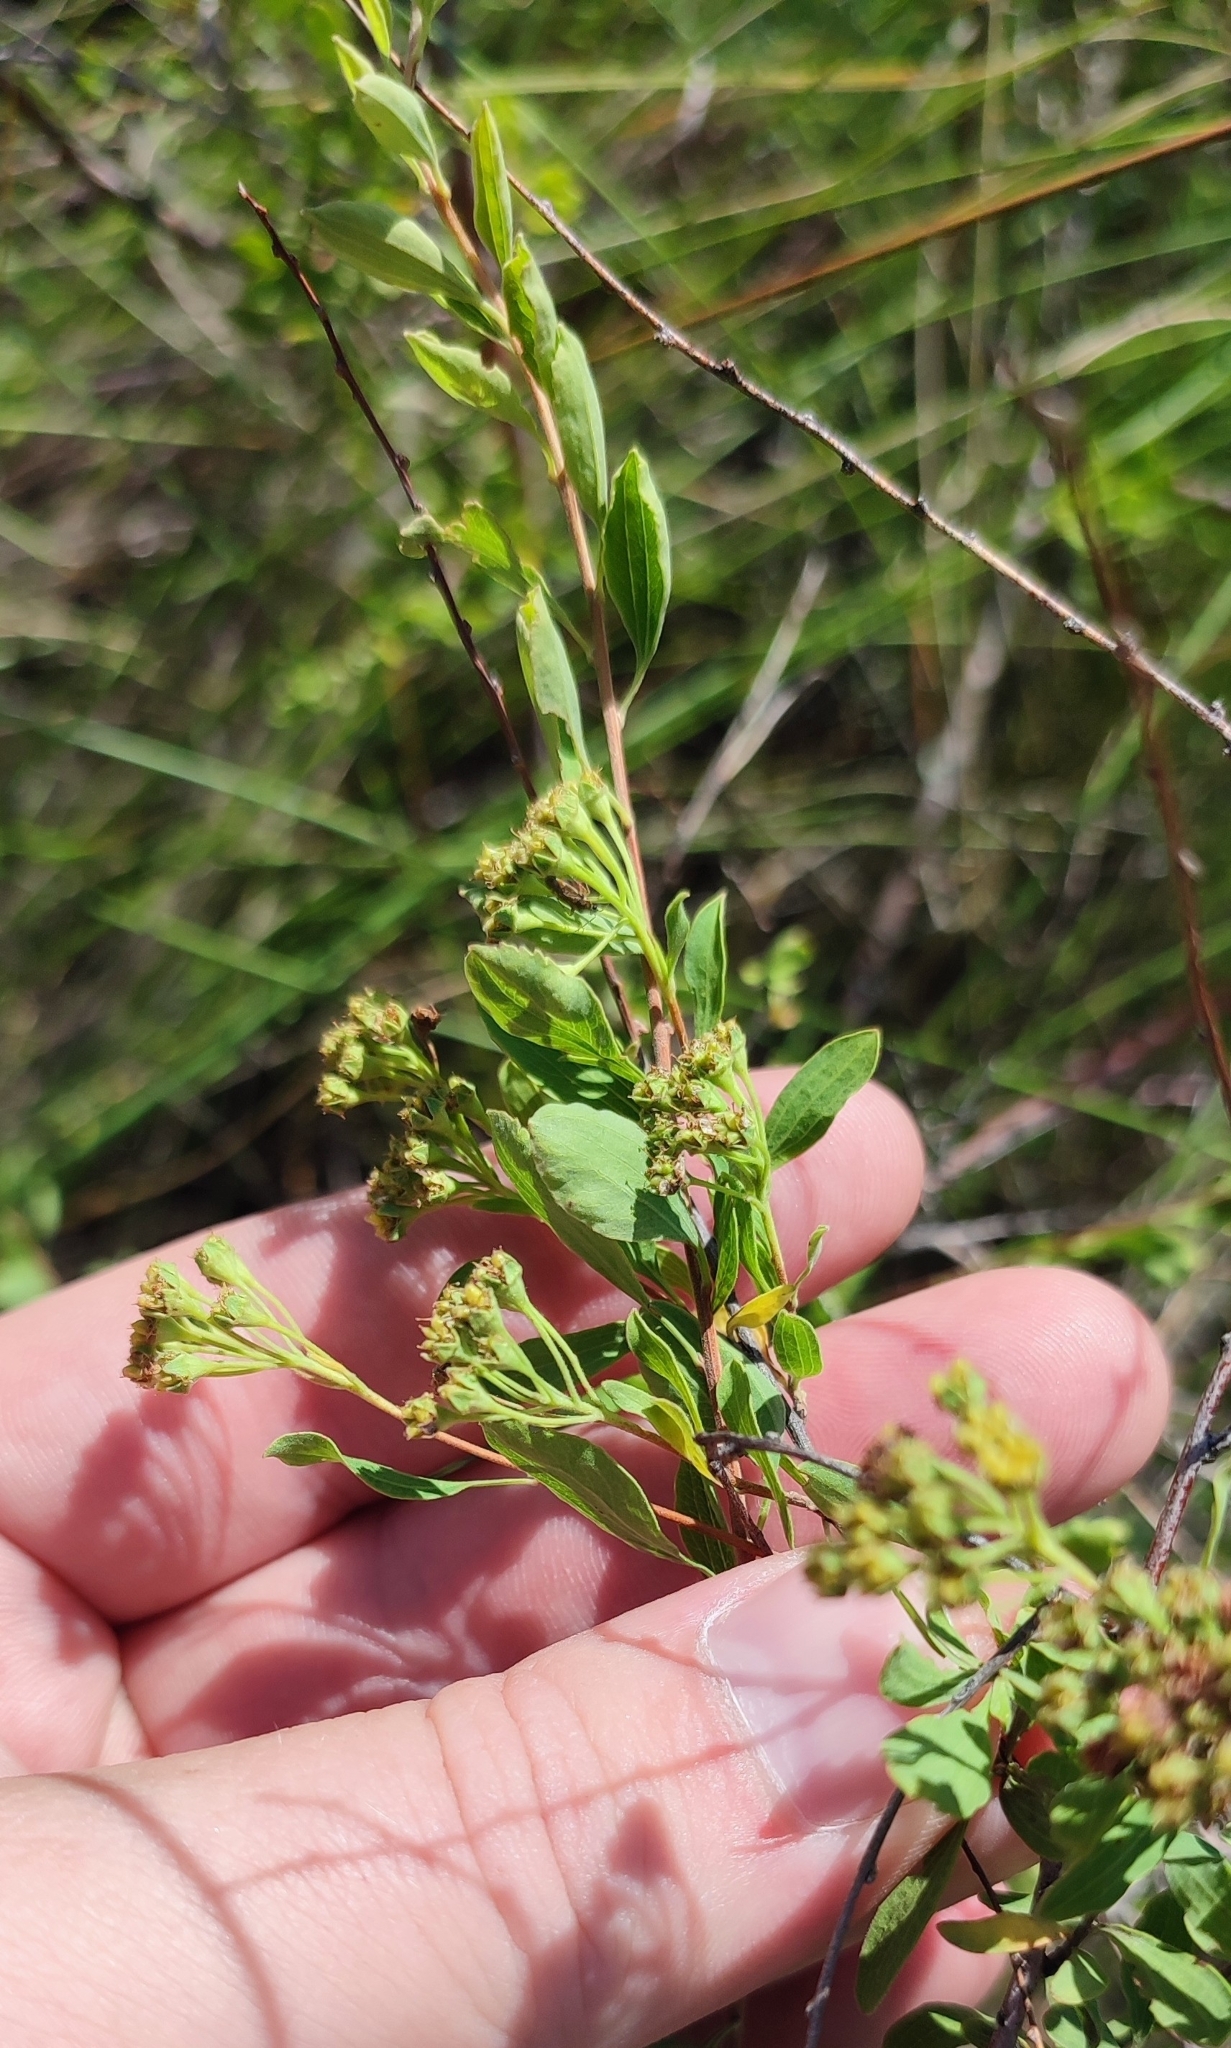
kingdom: Plantae
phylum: Tracheophyta
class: Magnoliopsida
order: Rosales
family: Rosaceae
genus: Spiraea
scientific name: Spiraea crenata
